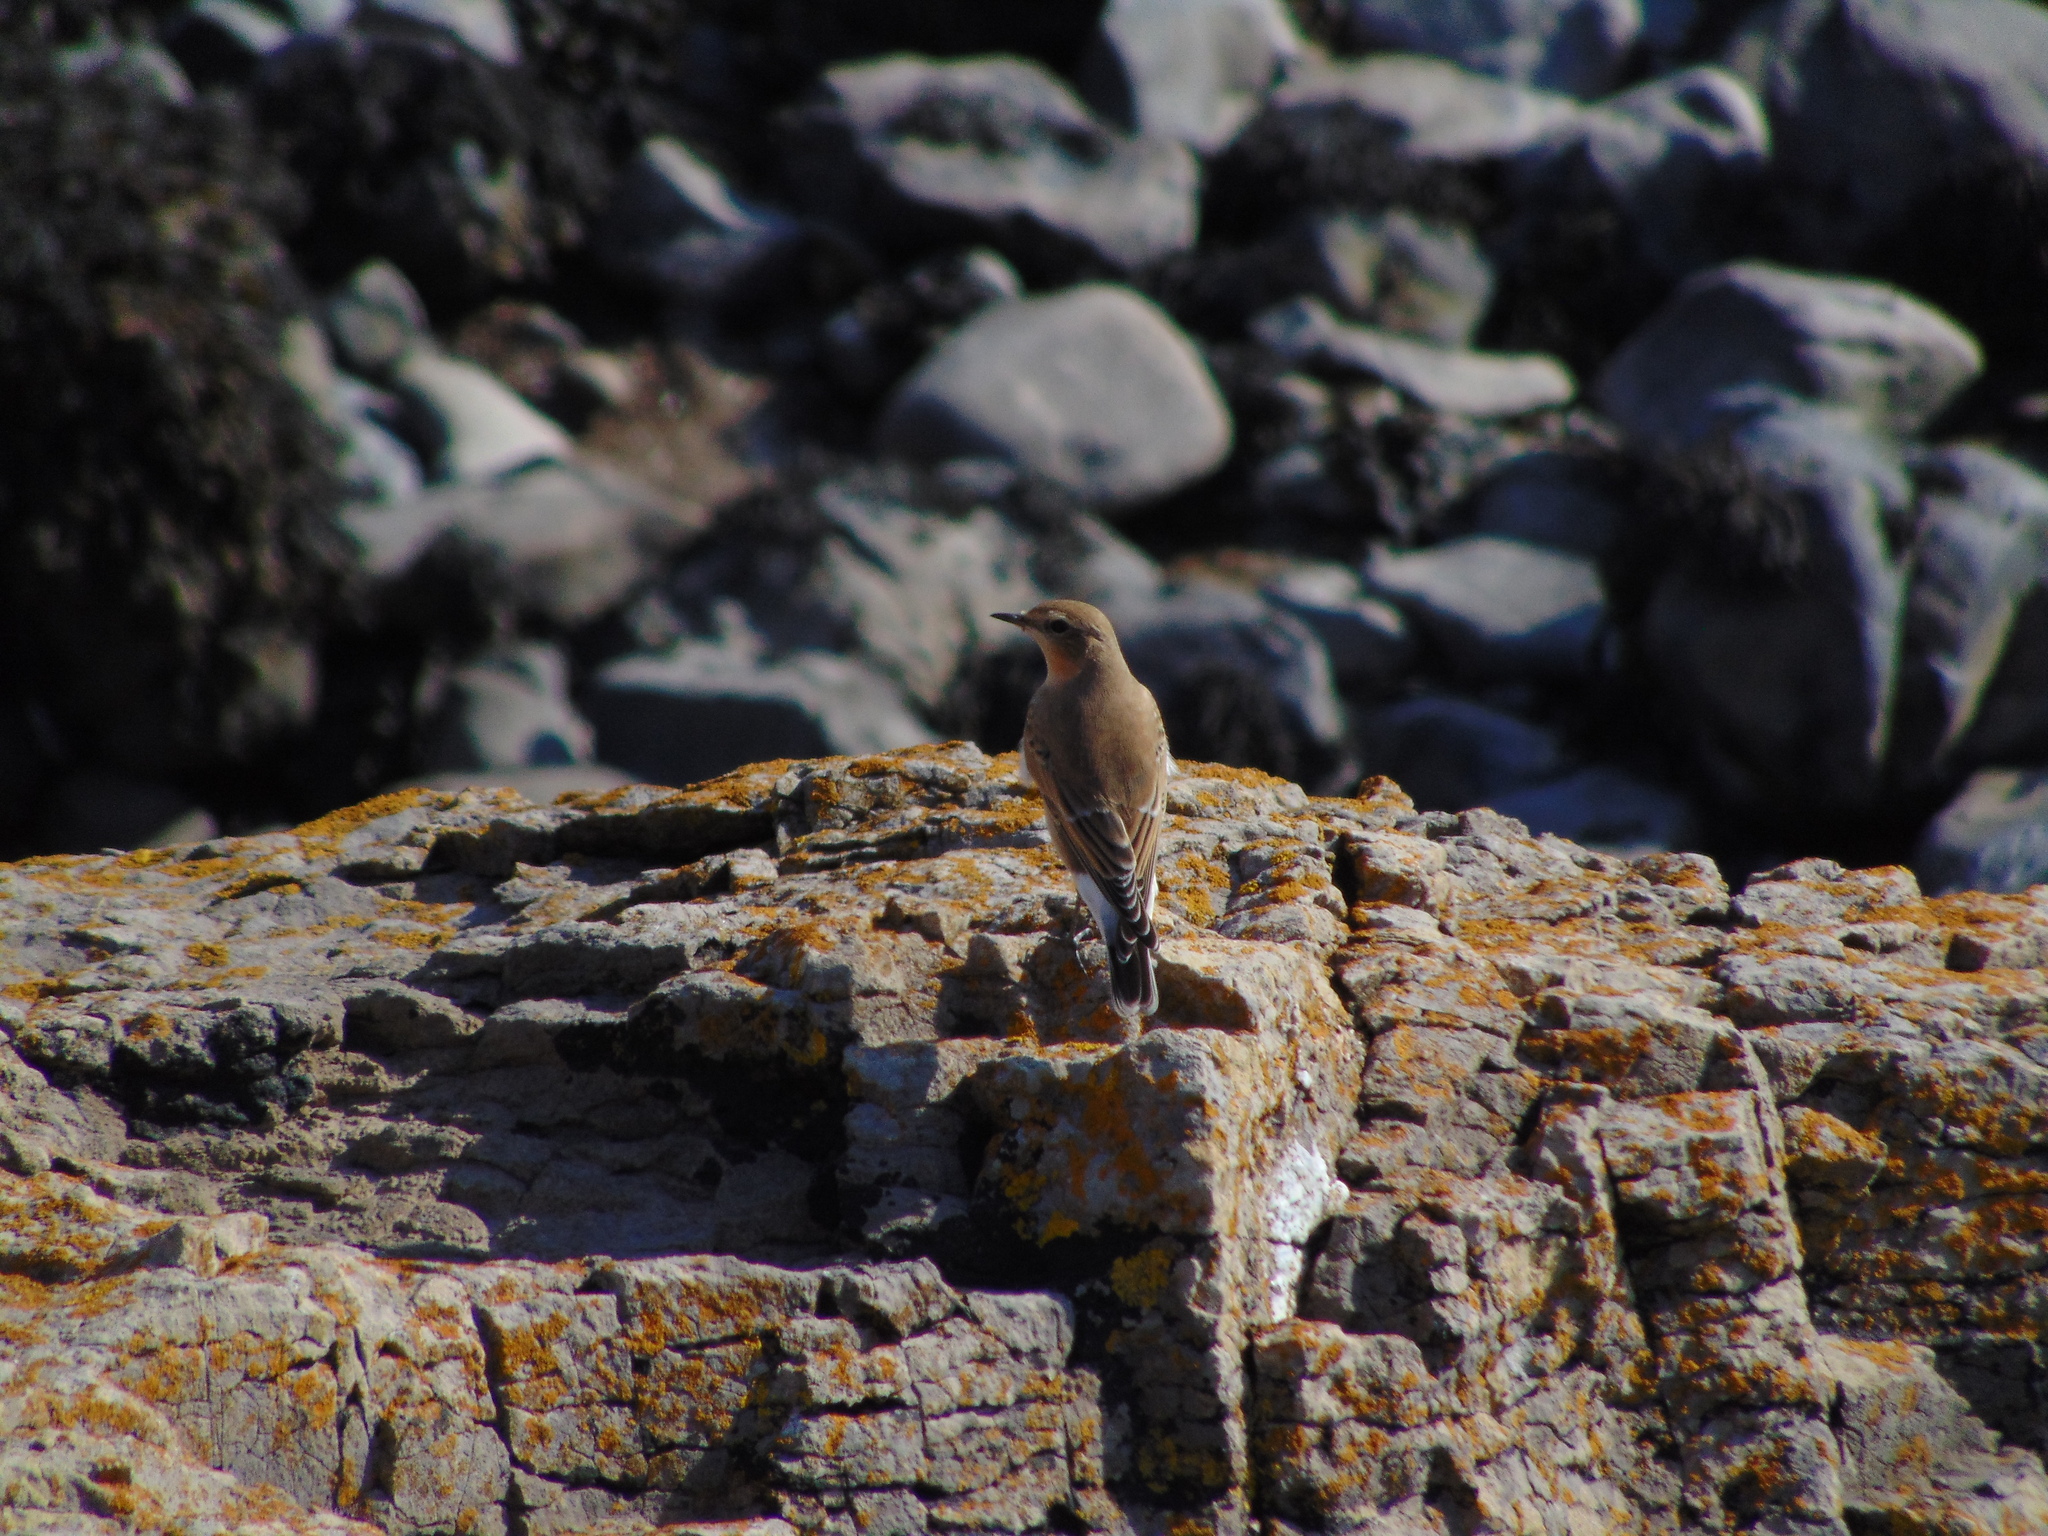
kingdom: Animalia
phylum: Chordata
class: Aves
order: Passeriformes
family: Muscicapidae
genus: Oenanthe
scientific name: Oenanthe oenanthe
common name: Northern wheatear
